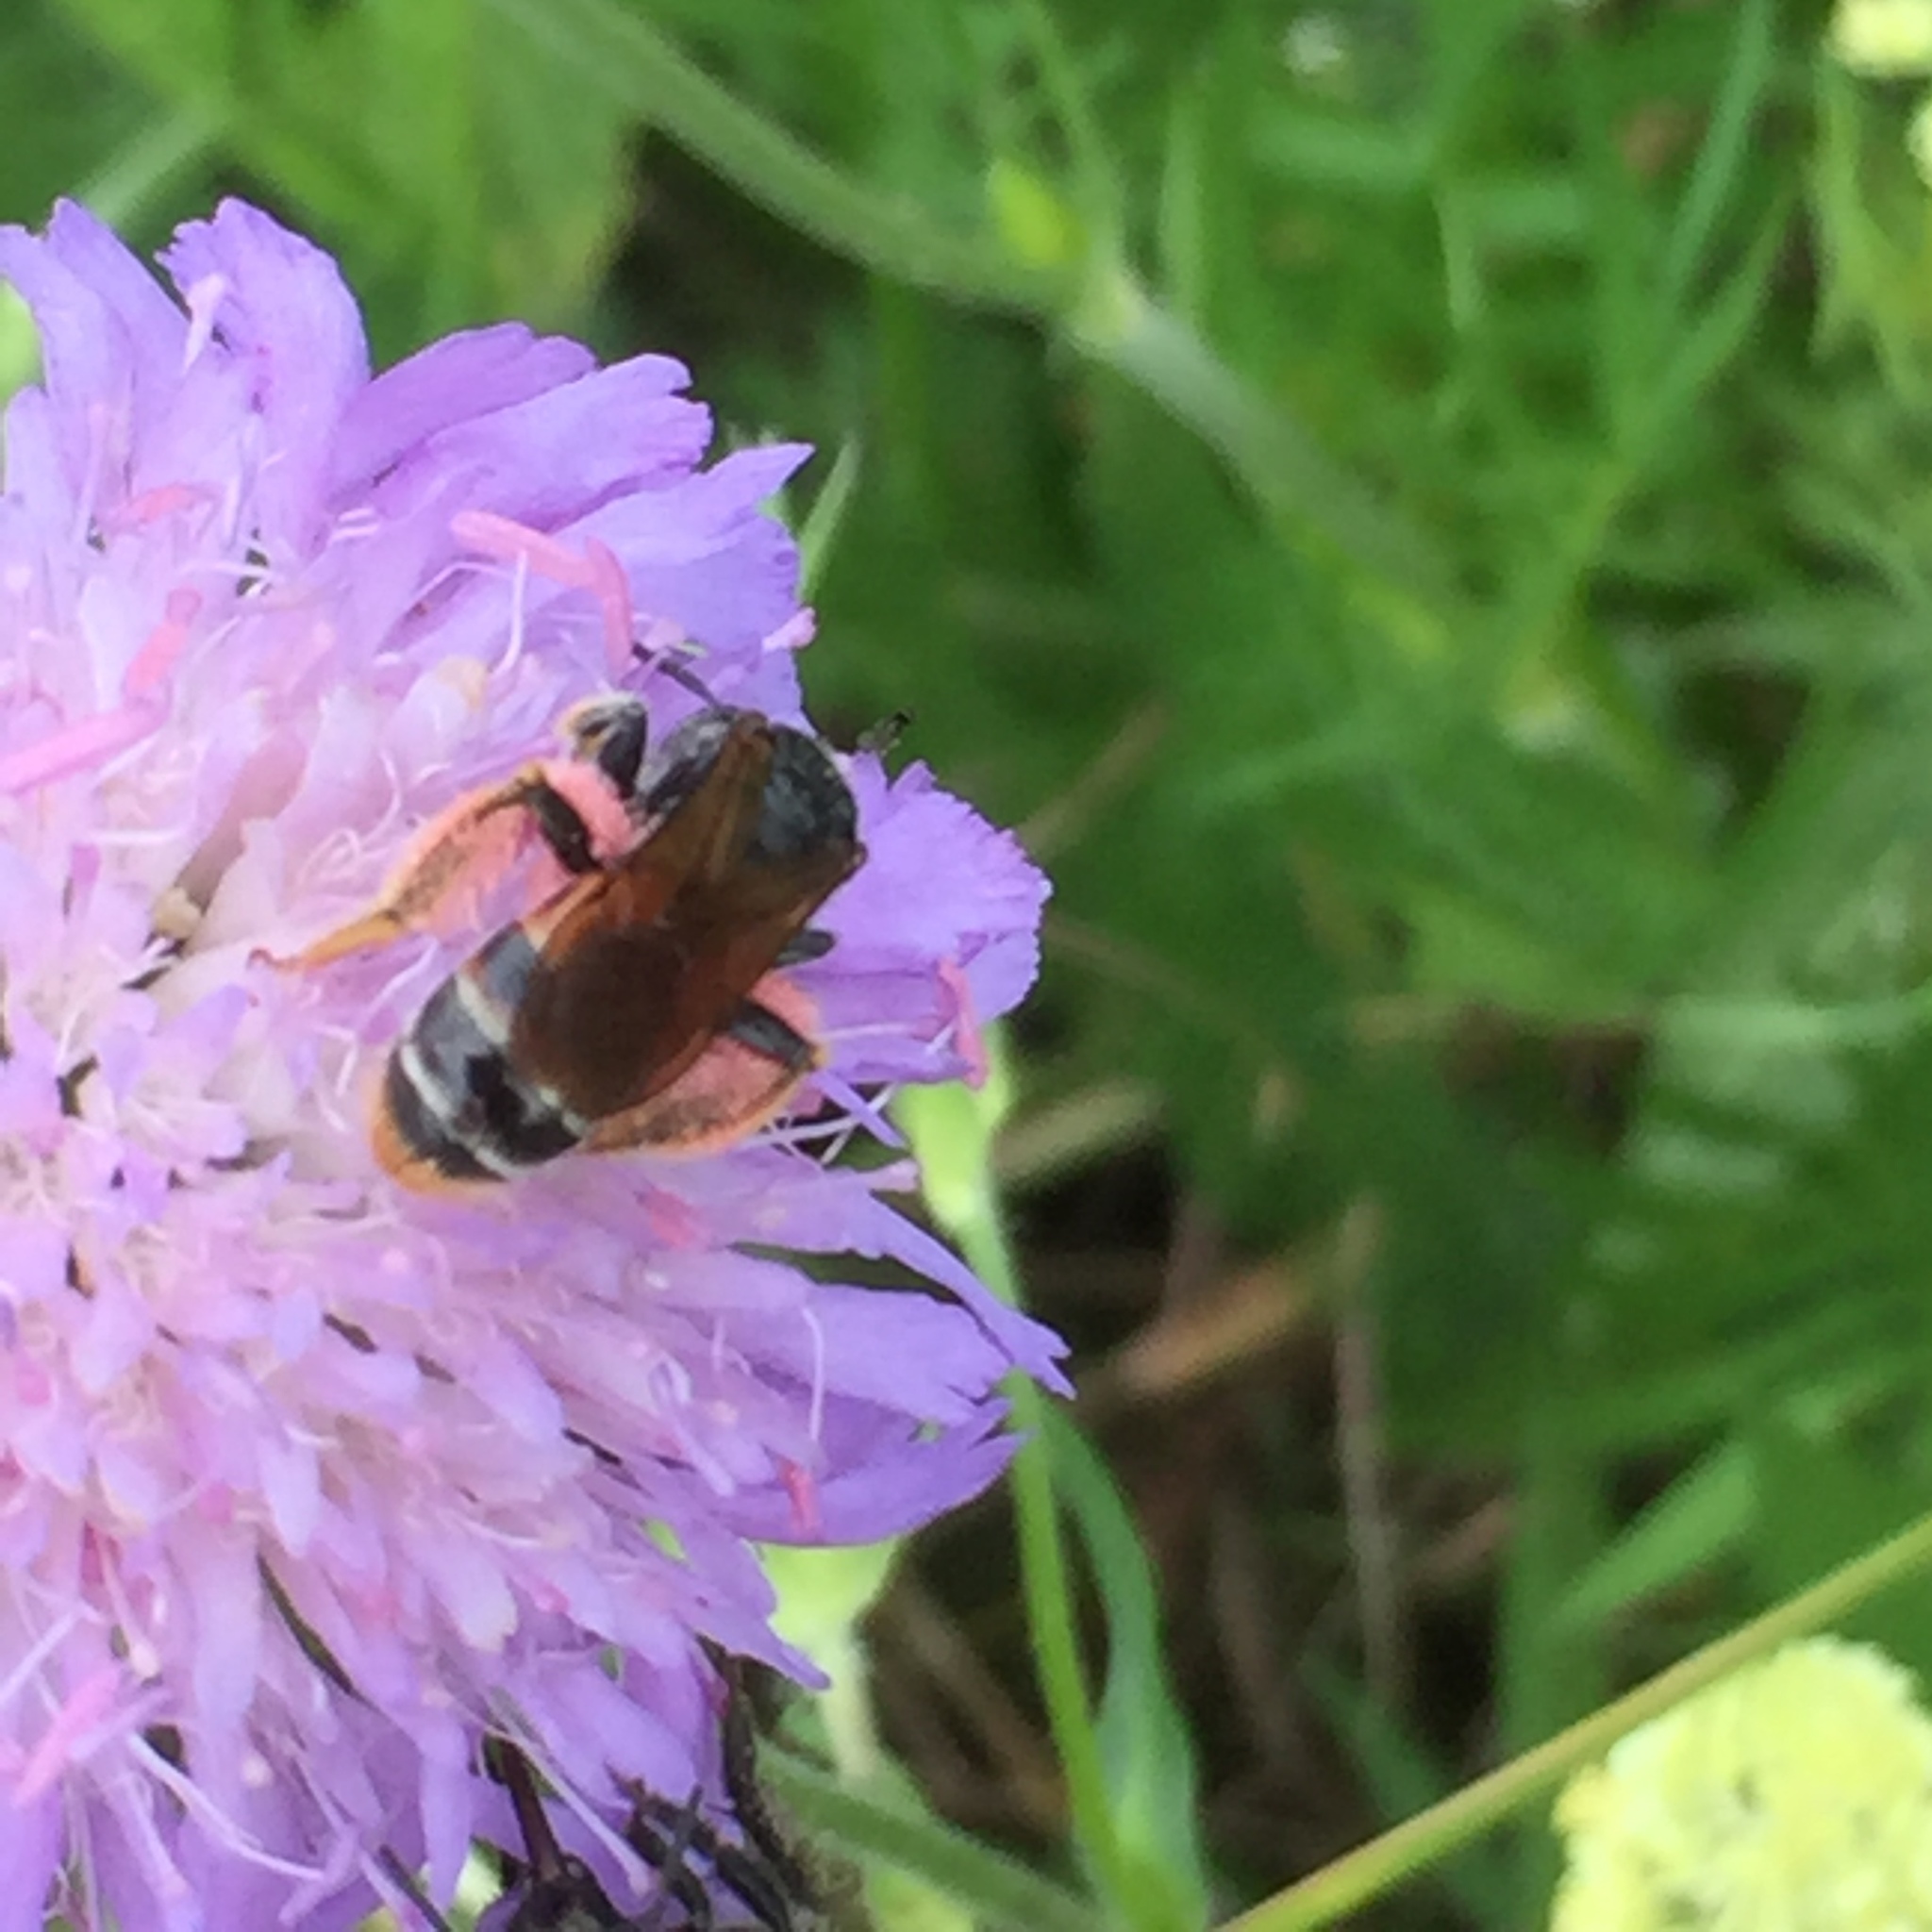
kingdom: Plantae
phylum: Tracheophyta
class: Magnoliopsida
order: Dipsacales
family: Caprifoliaceae
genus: Knautia
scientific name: Knautia arvensis
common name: Field scabiosa
